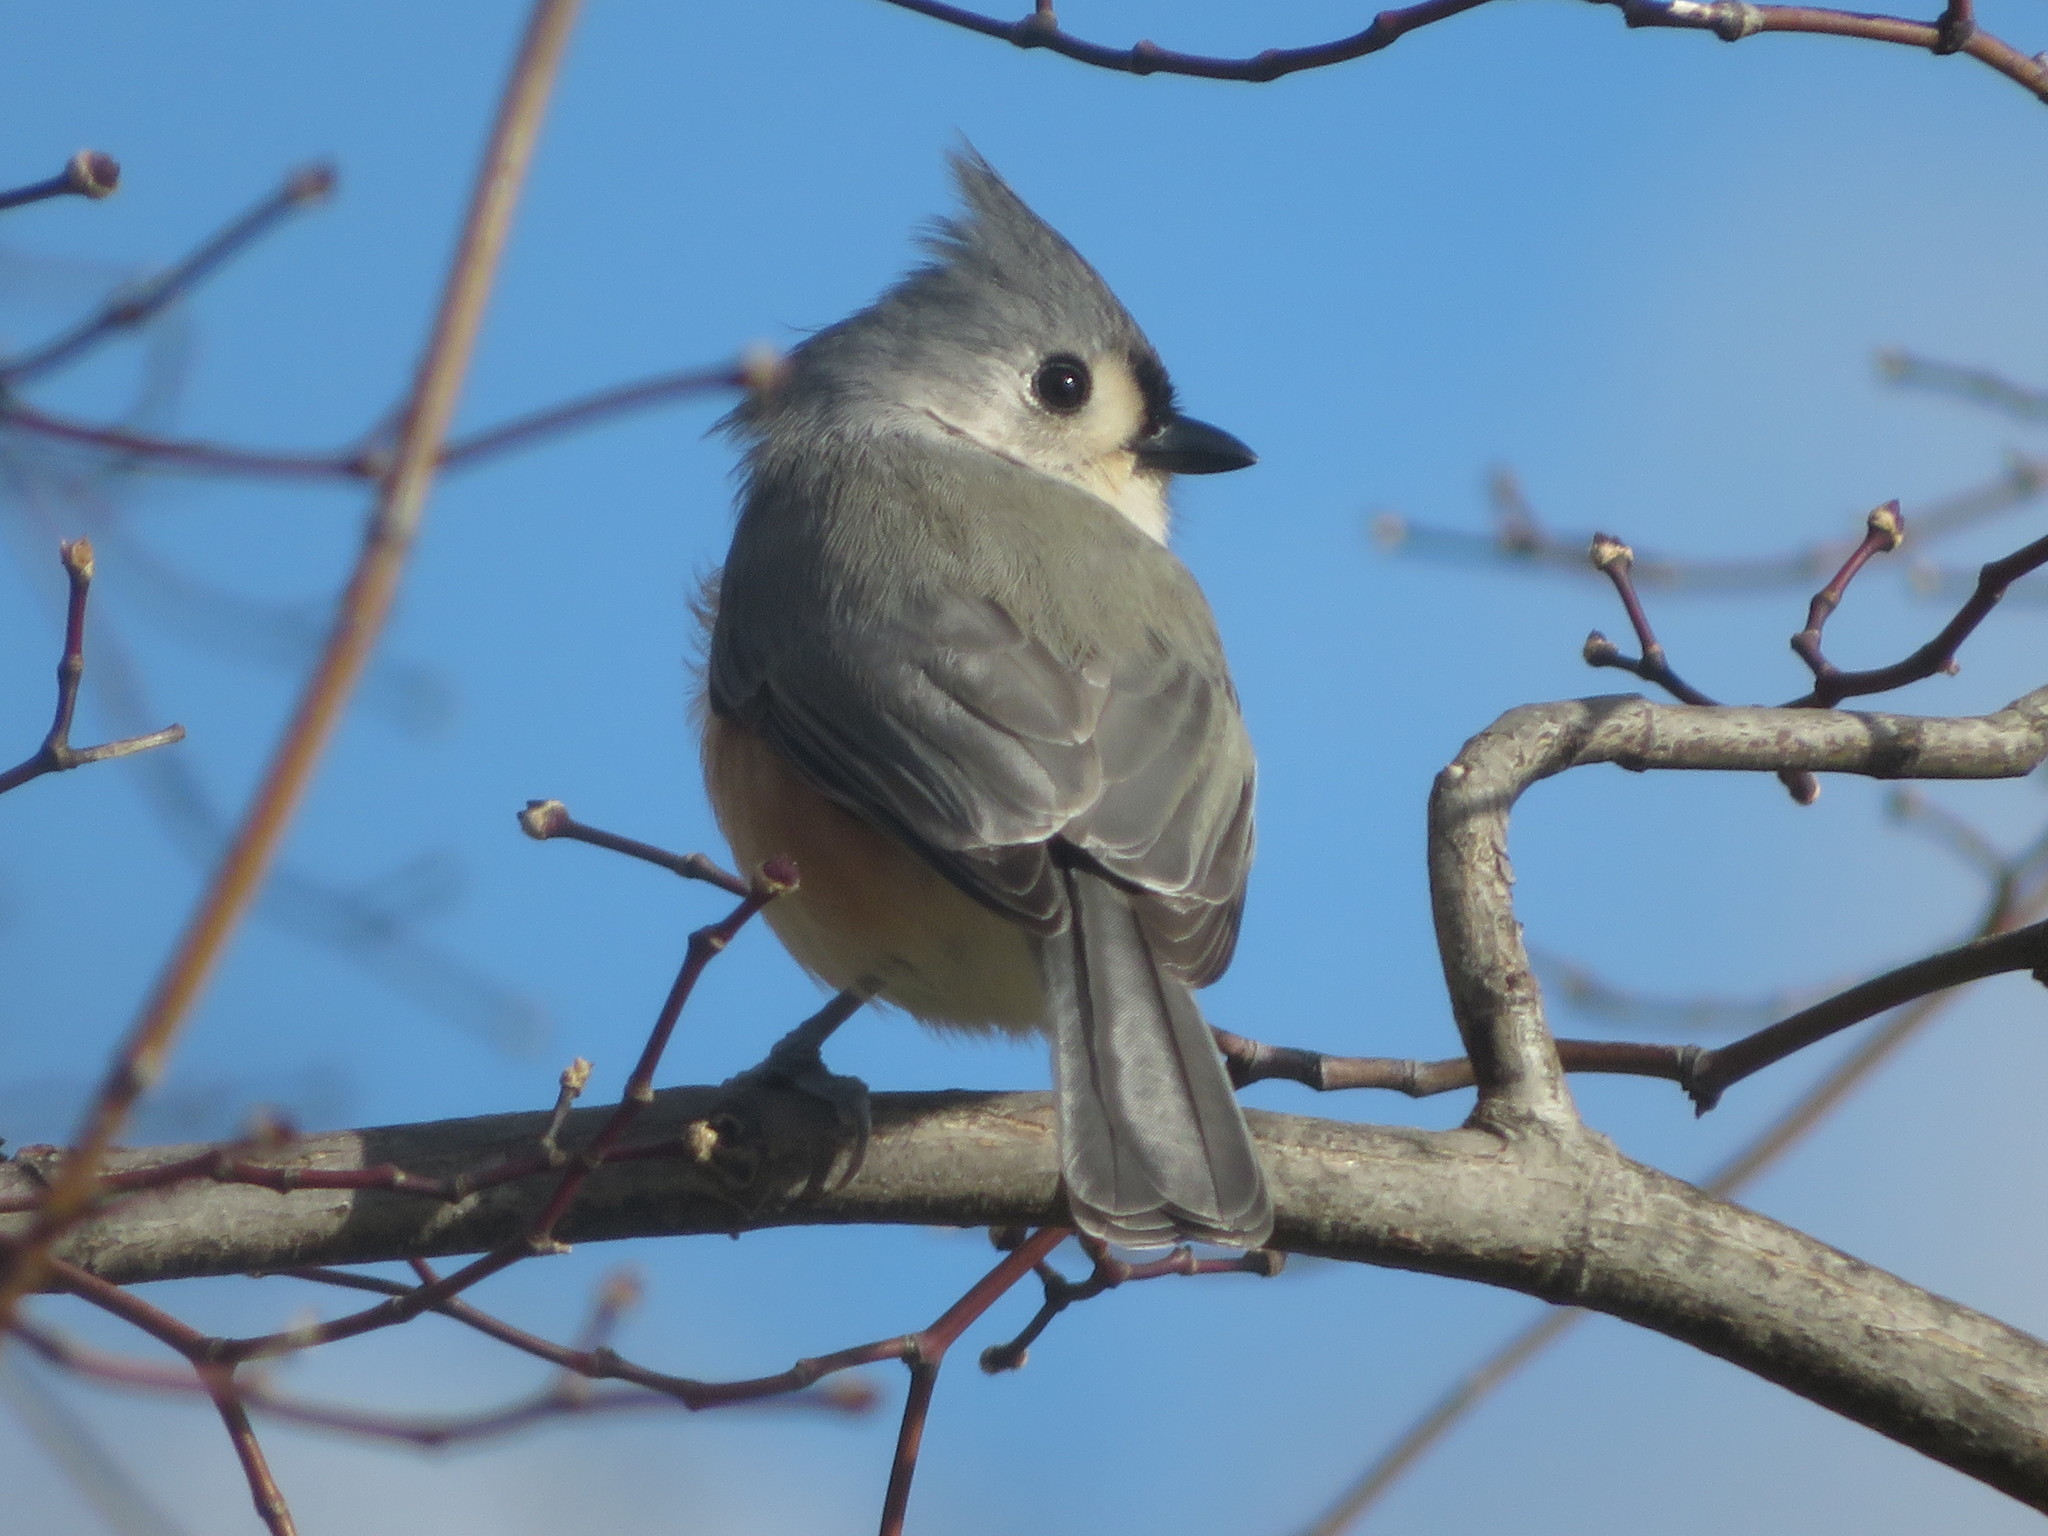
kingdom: Animalia
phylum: Chordata
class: Aves
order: Passeriformes
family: Paridae
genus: Baeolophus
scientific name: Baeolophus bicolor
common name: Tufted titmouse
